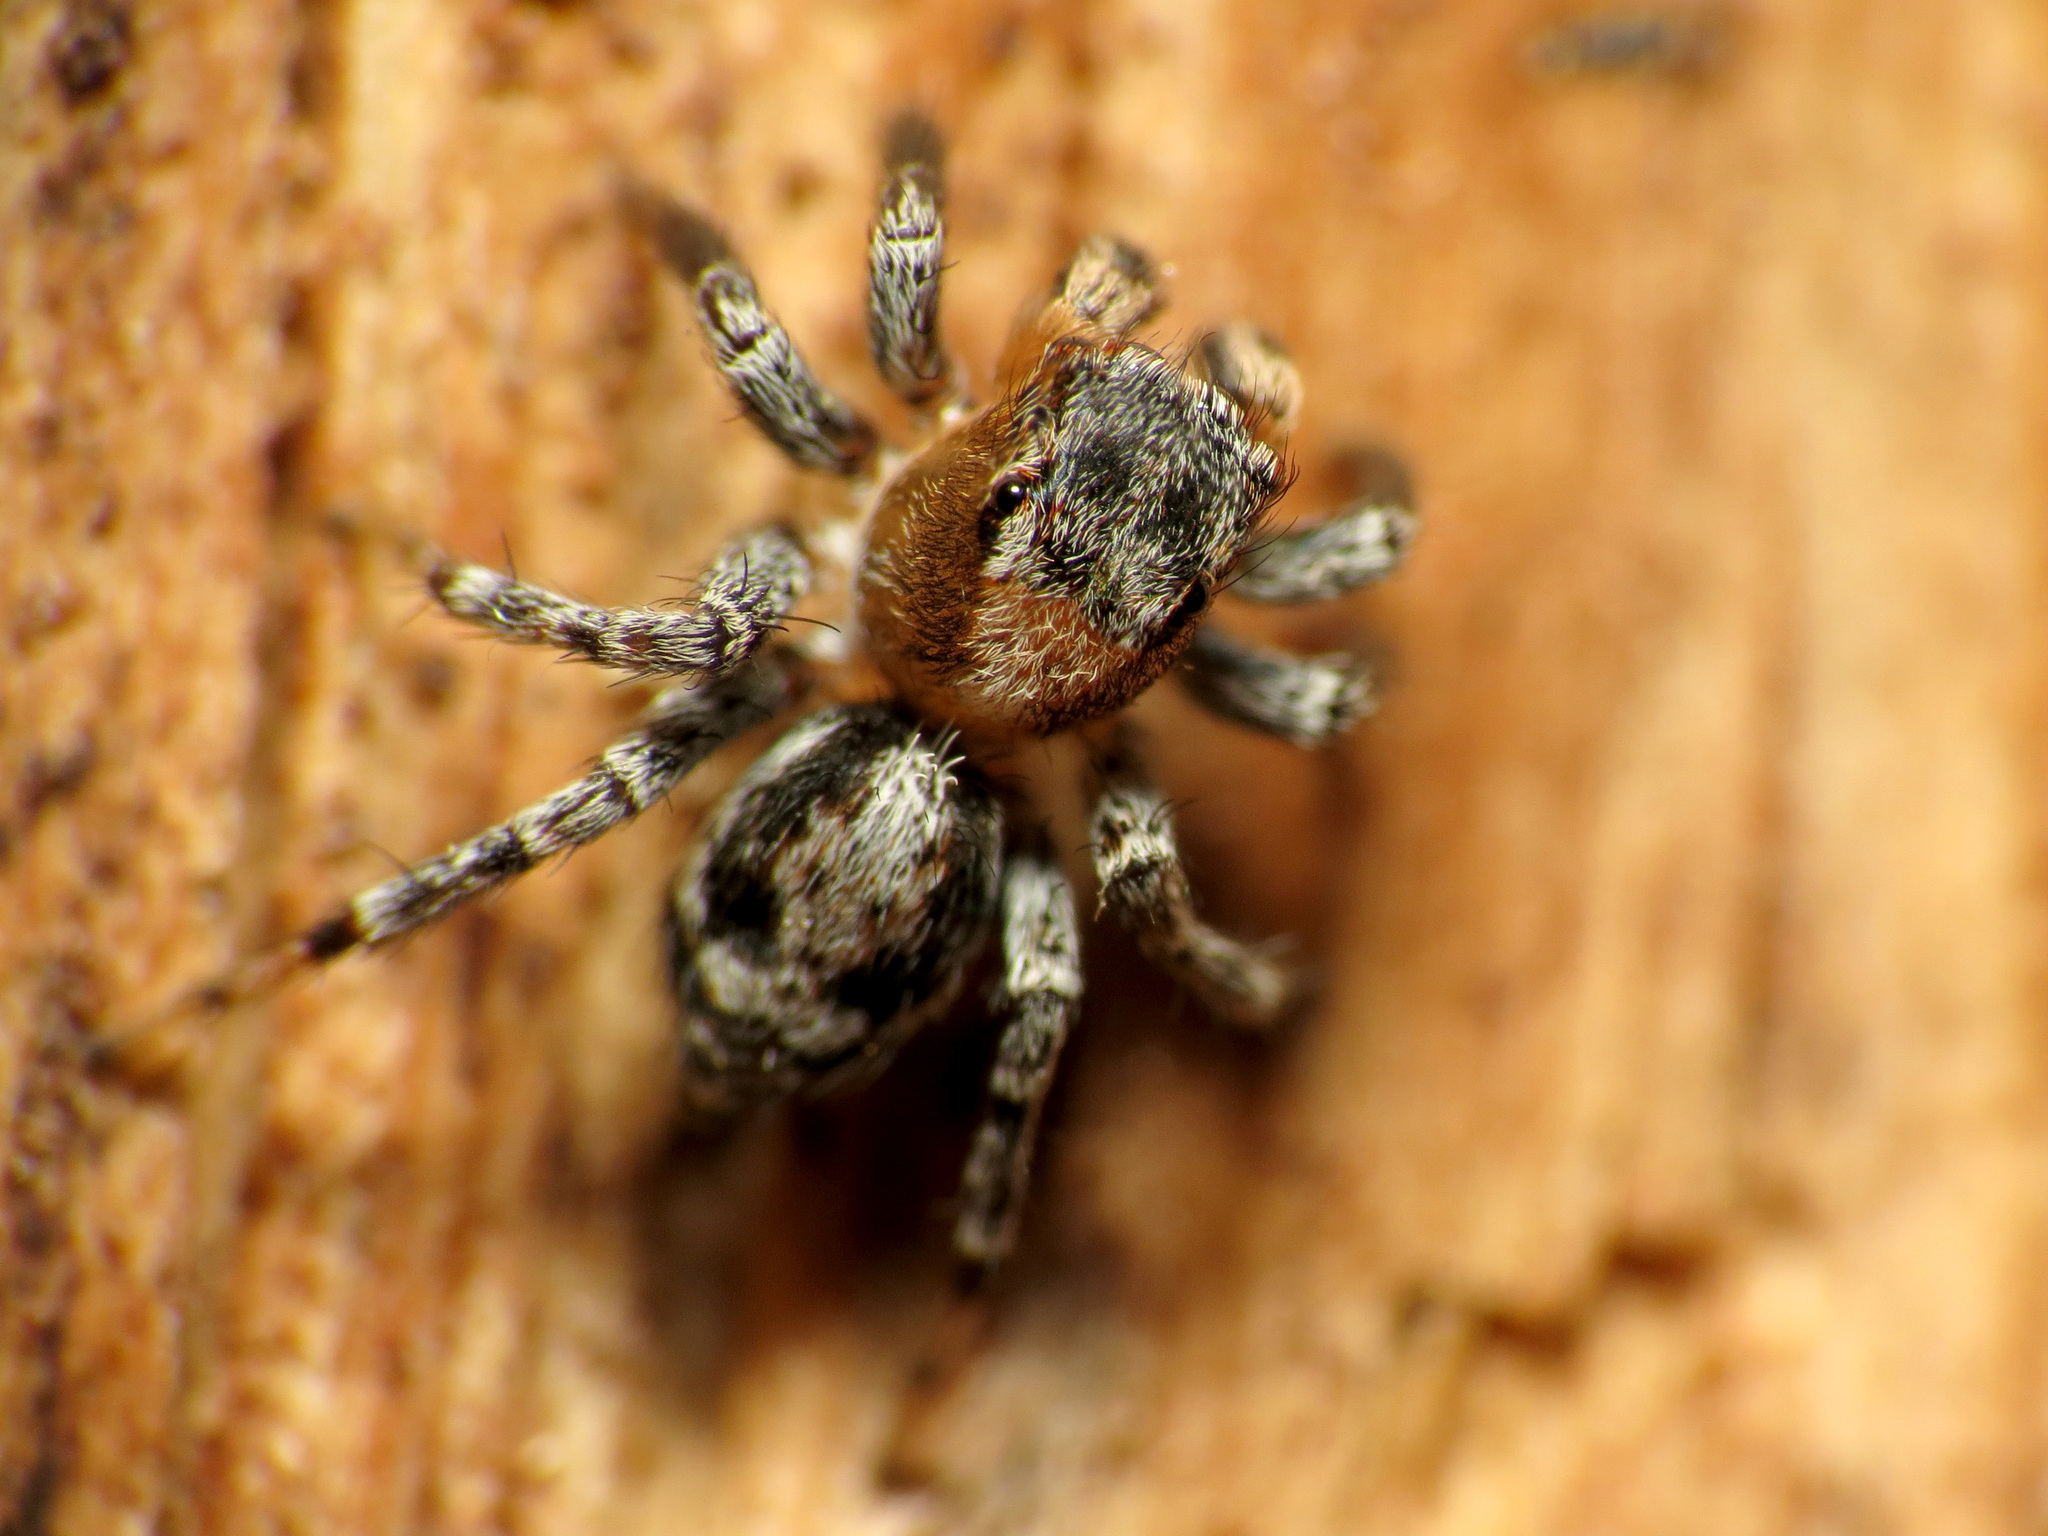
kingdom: Animalia
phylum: Arthropoda
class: Arachnida
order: Araneae
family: Salticidae
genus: Naphrys
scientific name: Naphrys pulex
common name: Flea jumping spider
